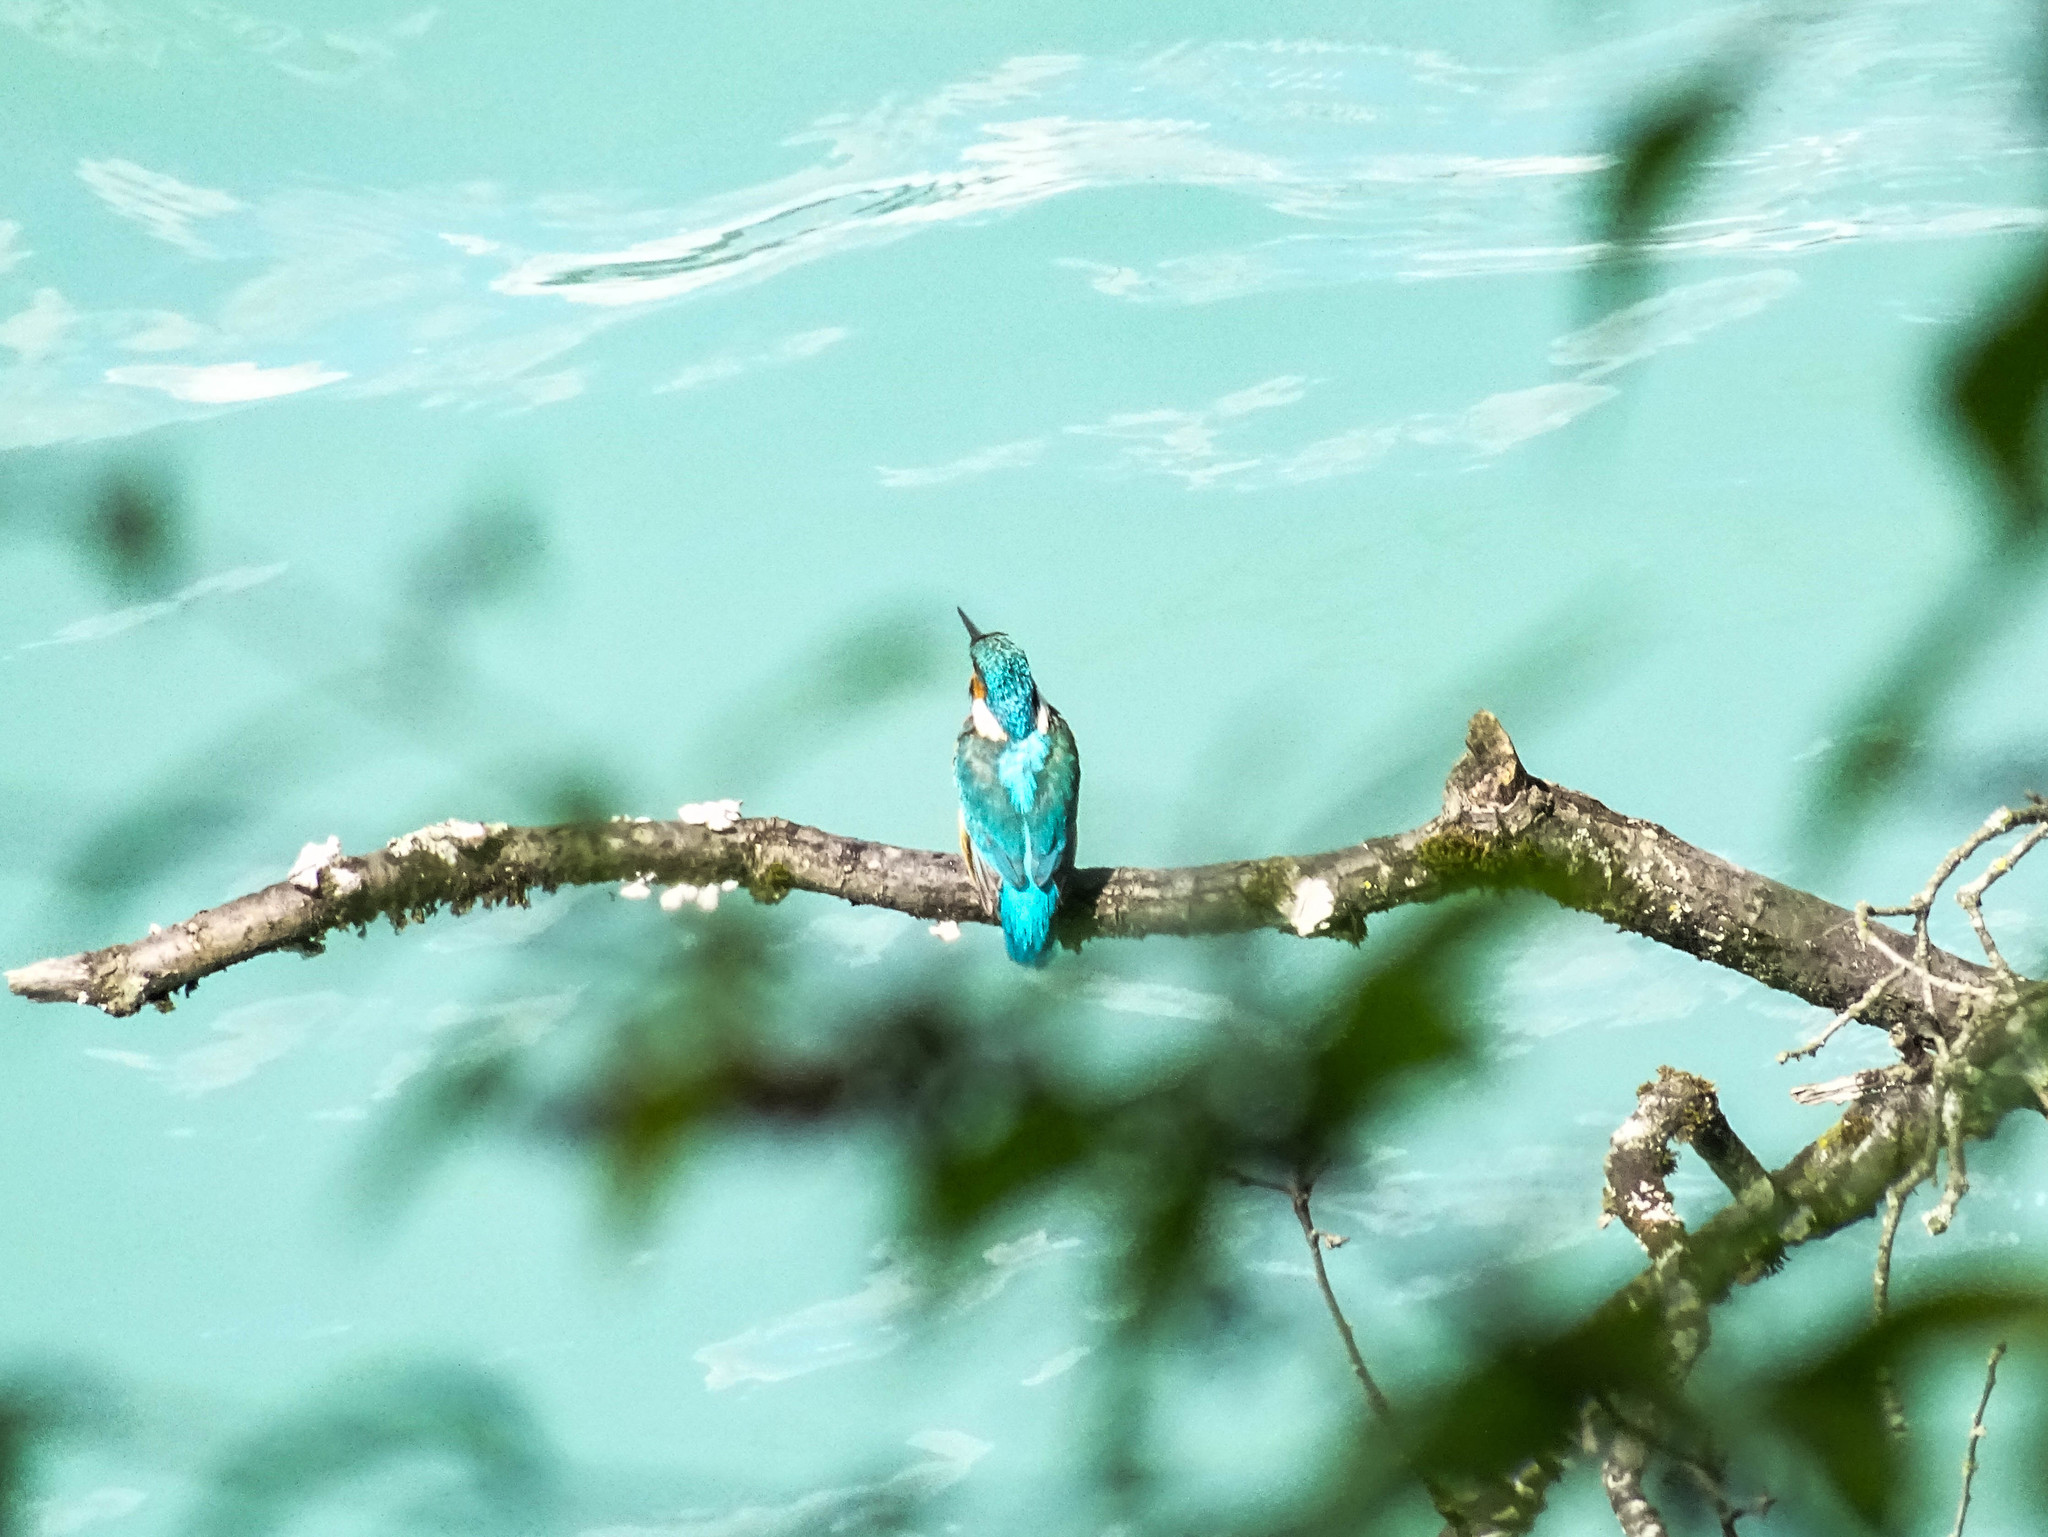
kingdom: Animalia
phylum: Chordata
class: Aves
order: Coraciiformes
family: Alcedinidae
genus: Alcedo
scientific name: Alcedo atthis
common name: Common kingfisher
